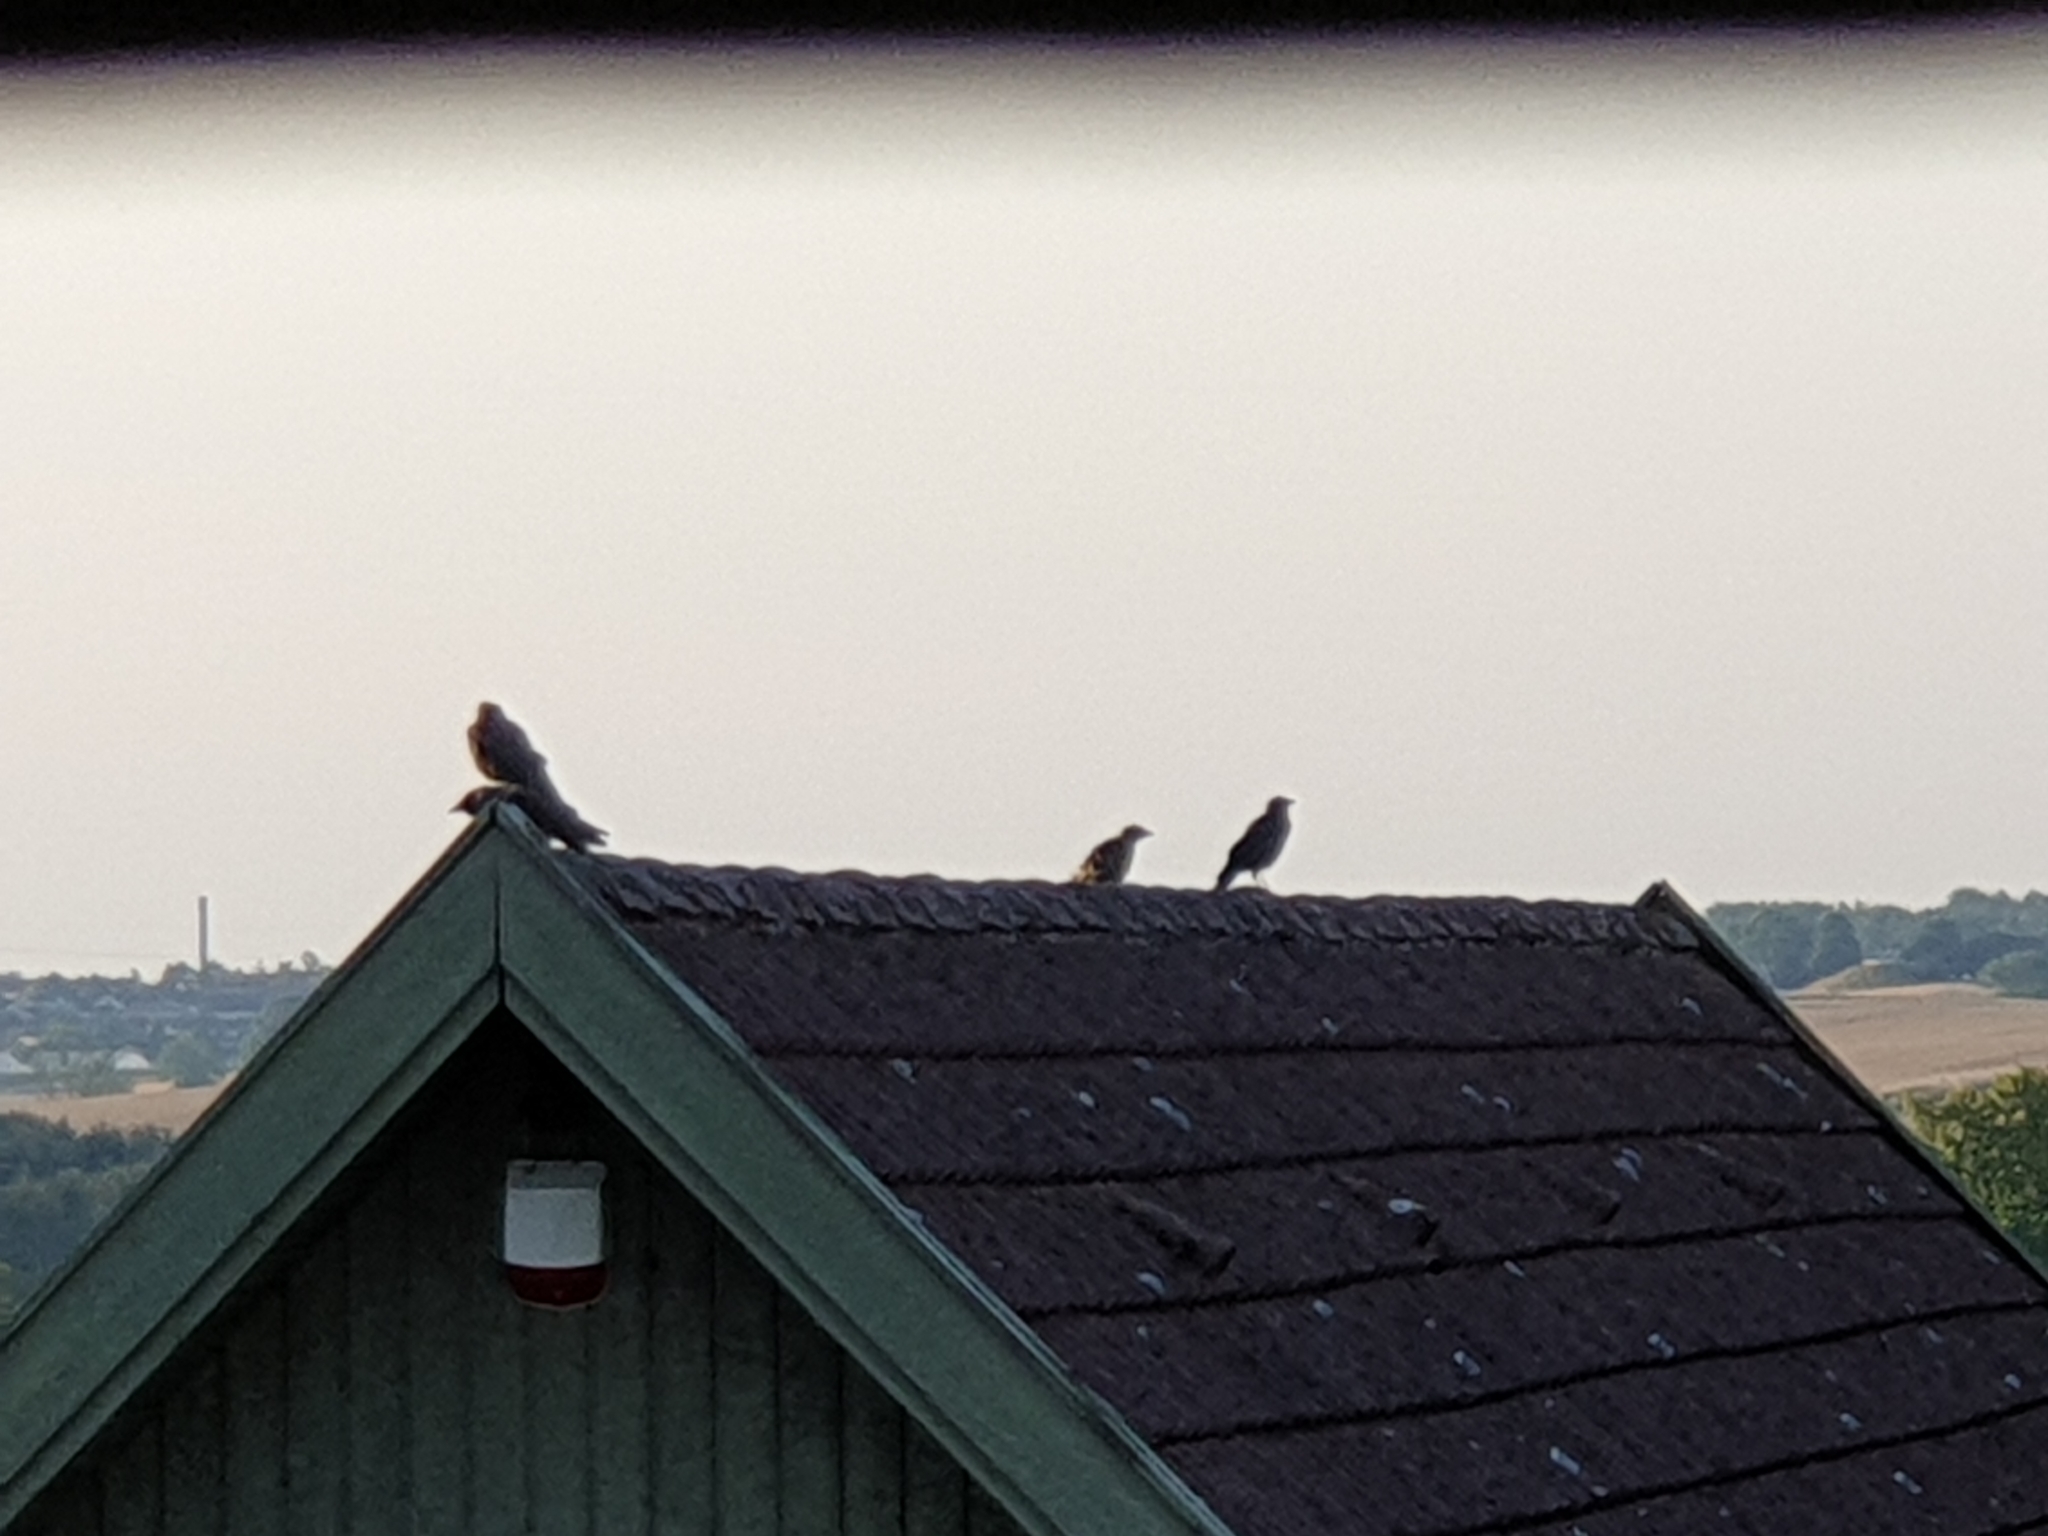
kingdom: Animalia
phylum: Chordata
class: Aves
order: Passeriformes
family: Corvidae
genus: Coloeus
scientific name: Coloeus monedula
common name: Western jackdaw
